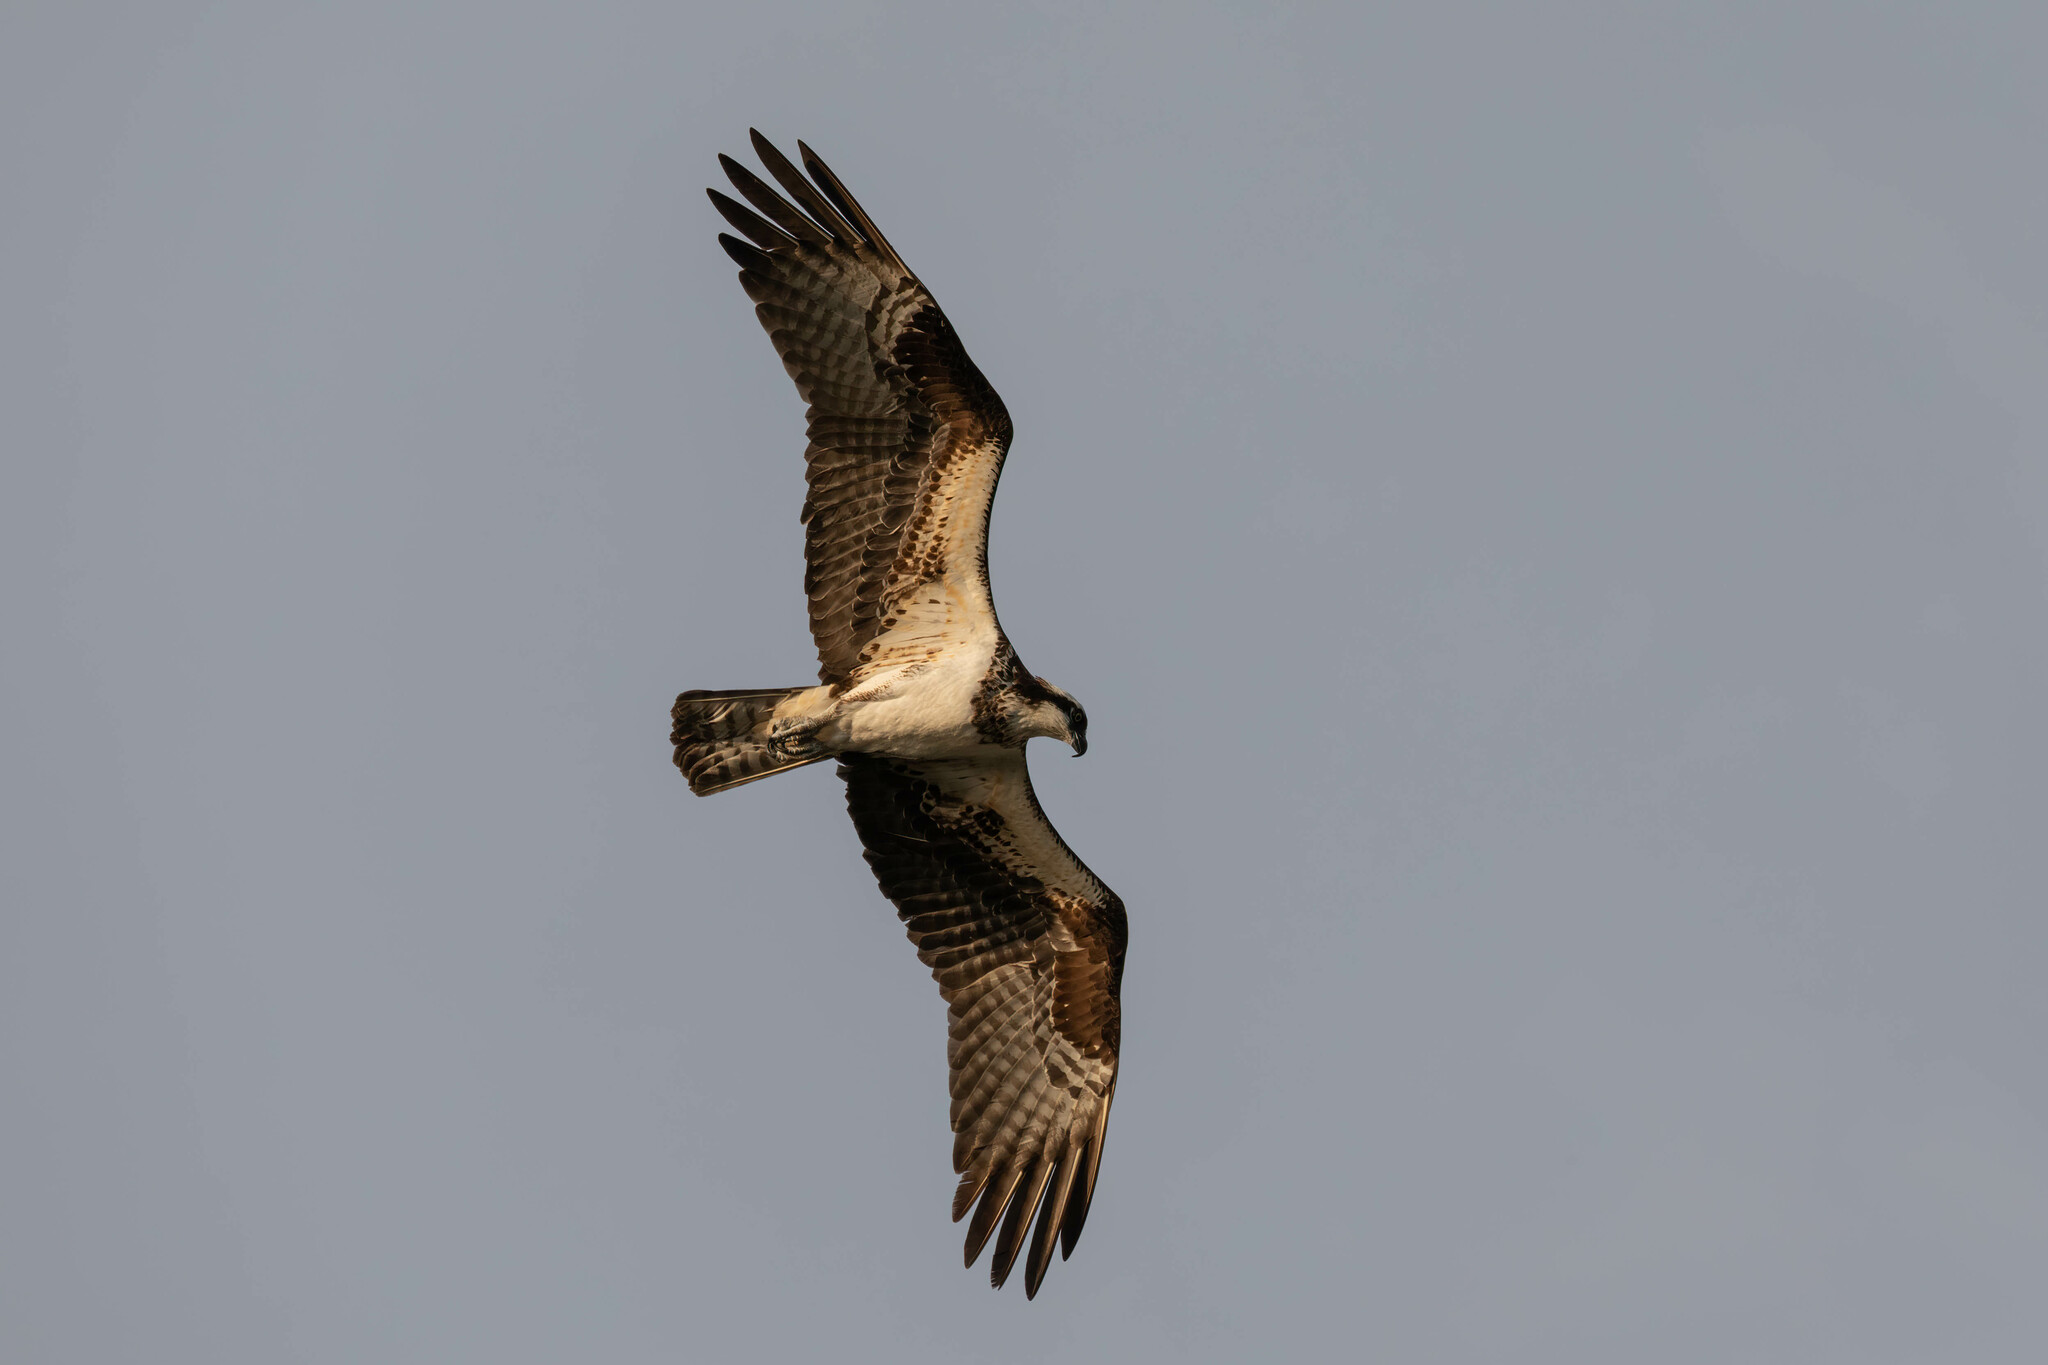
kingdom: Animalia
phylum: Chordata
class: Aves
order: Accipitriformes
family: Pandionidae
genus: Pandion
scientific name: Pandion haliaetus
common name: Osprey
